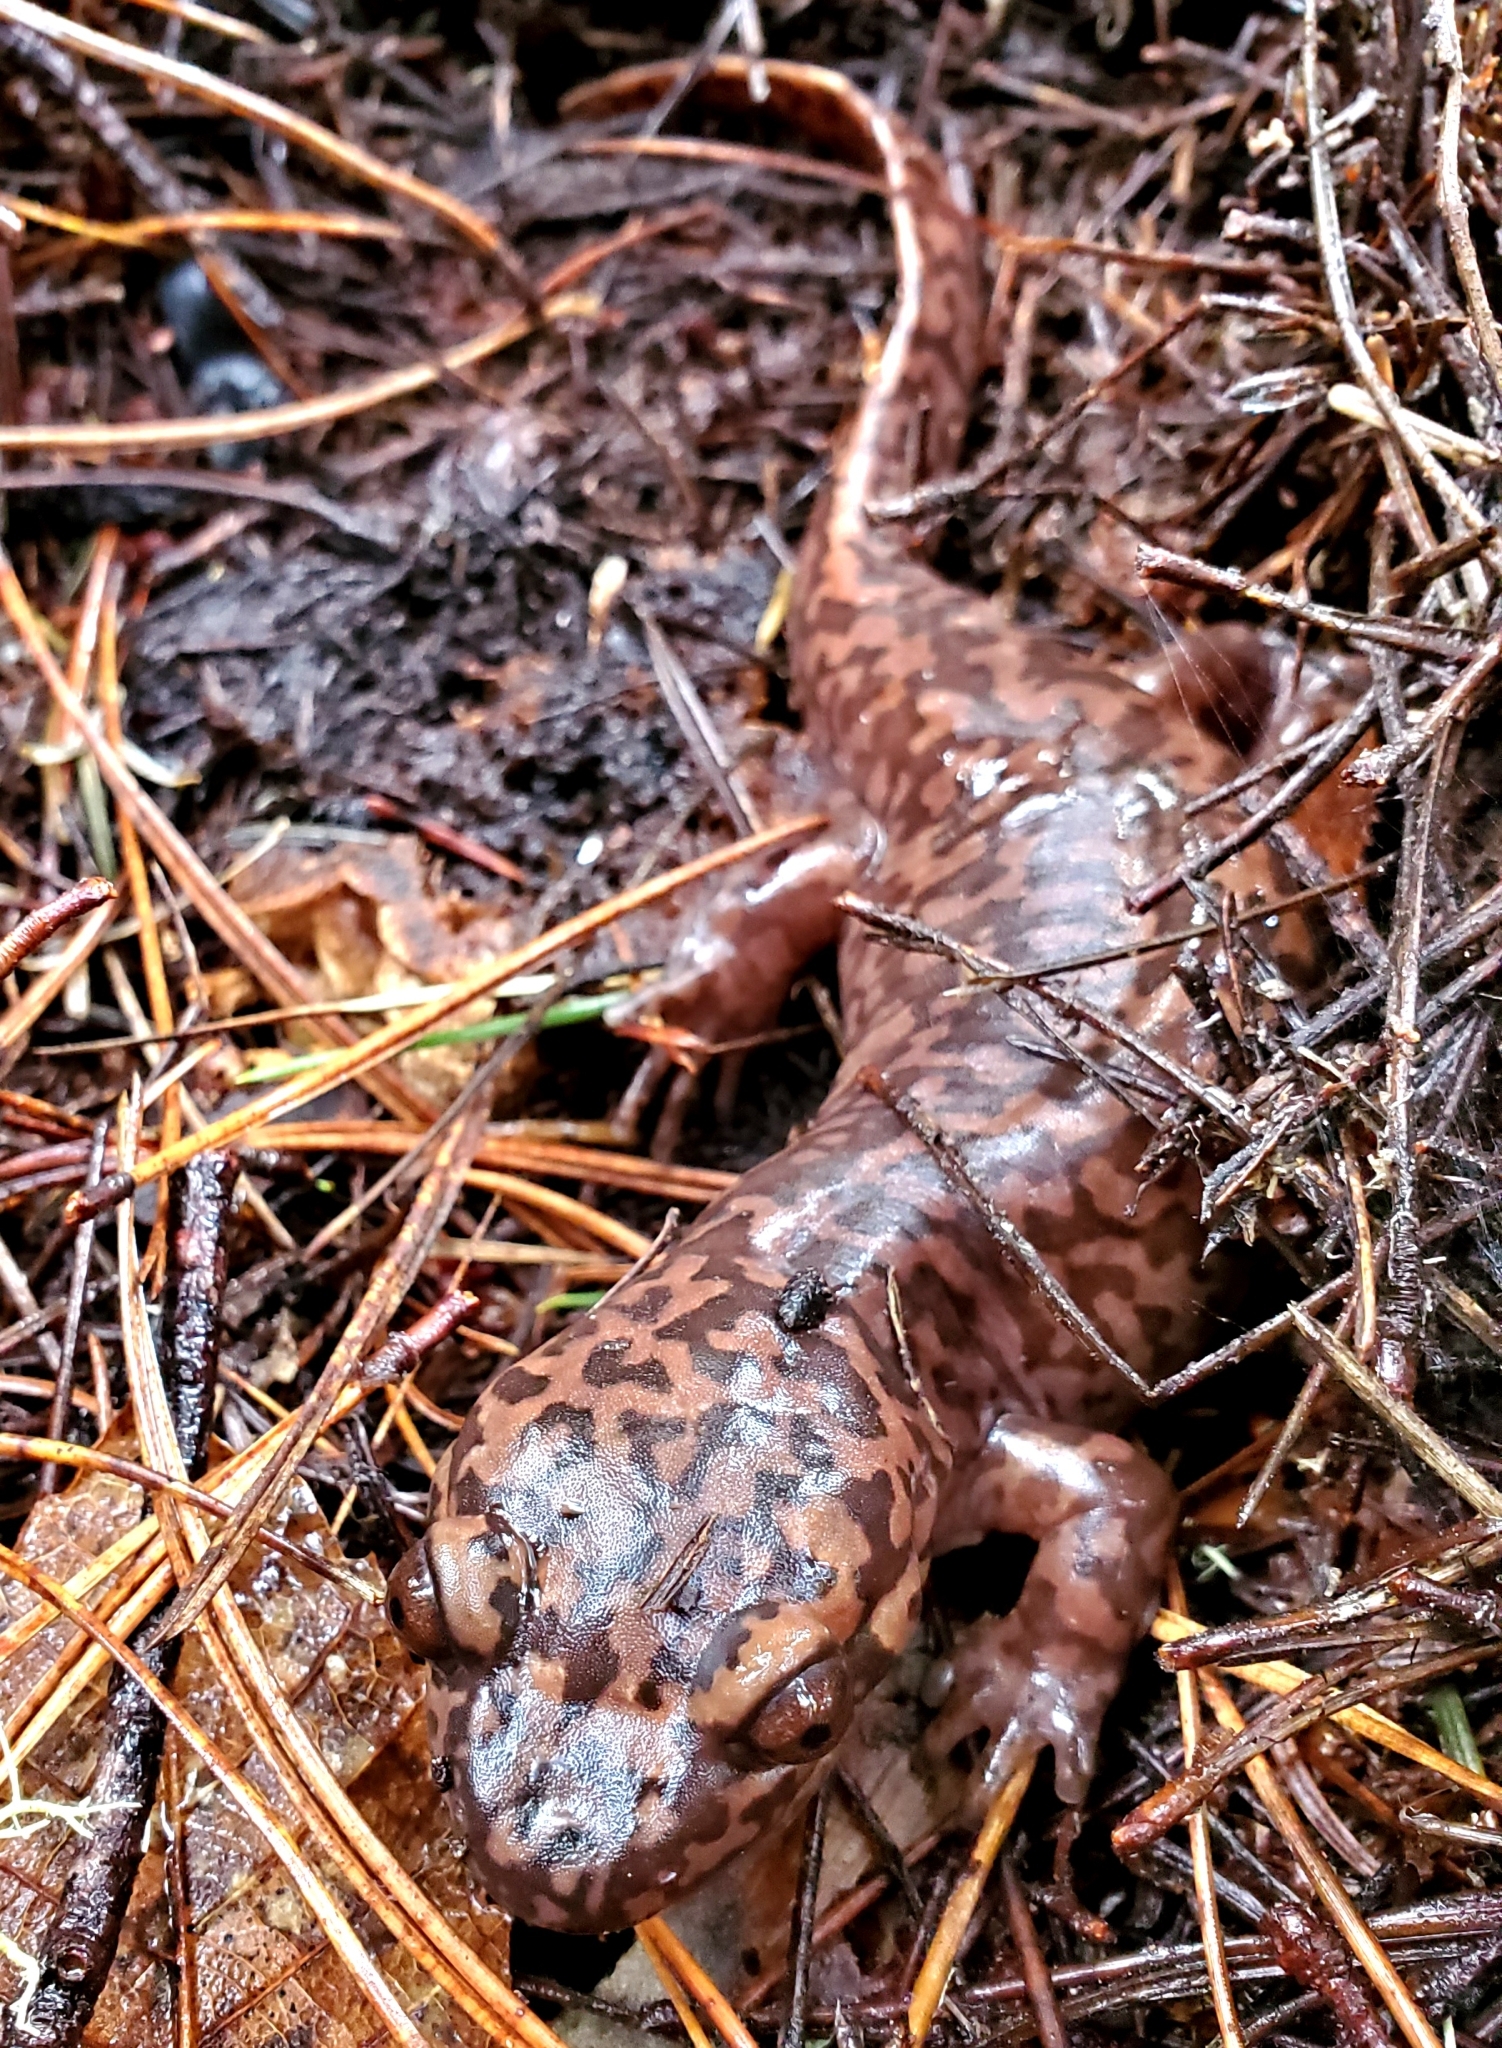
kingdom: Animalia
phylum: Chordata
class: Amphibia
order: Caudata
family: Ambystomatidae
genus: Dicamptodon
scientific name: Dicamptodon ensatus
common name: California giant salamander
